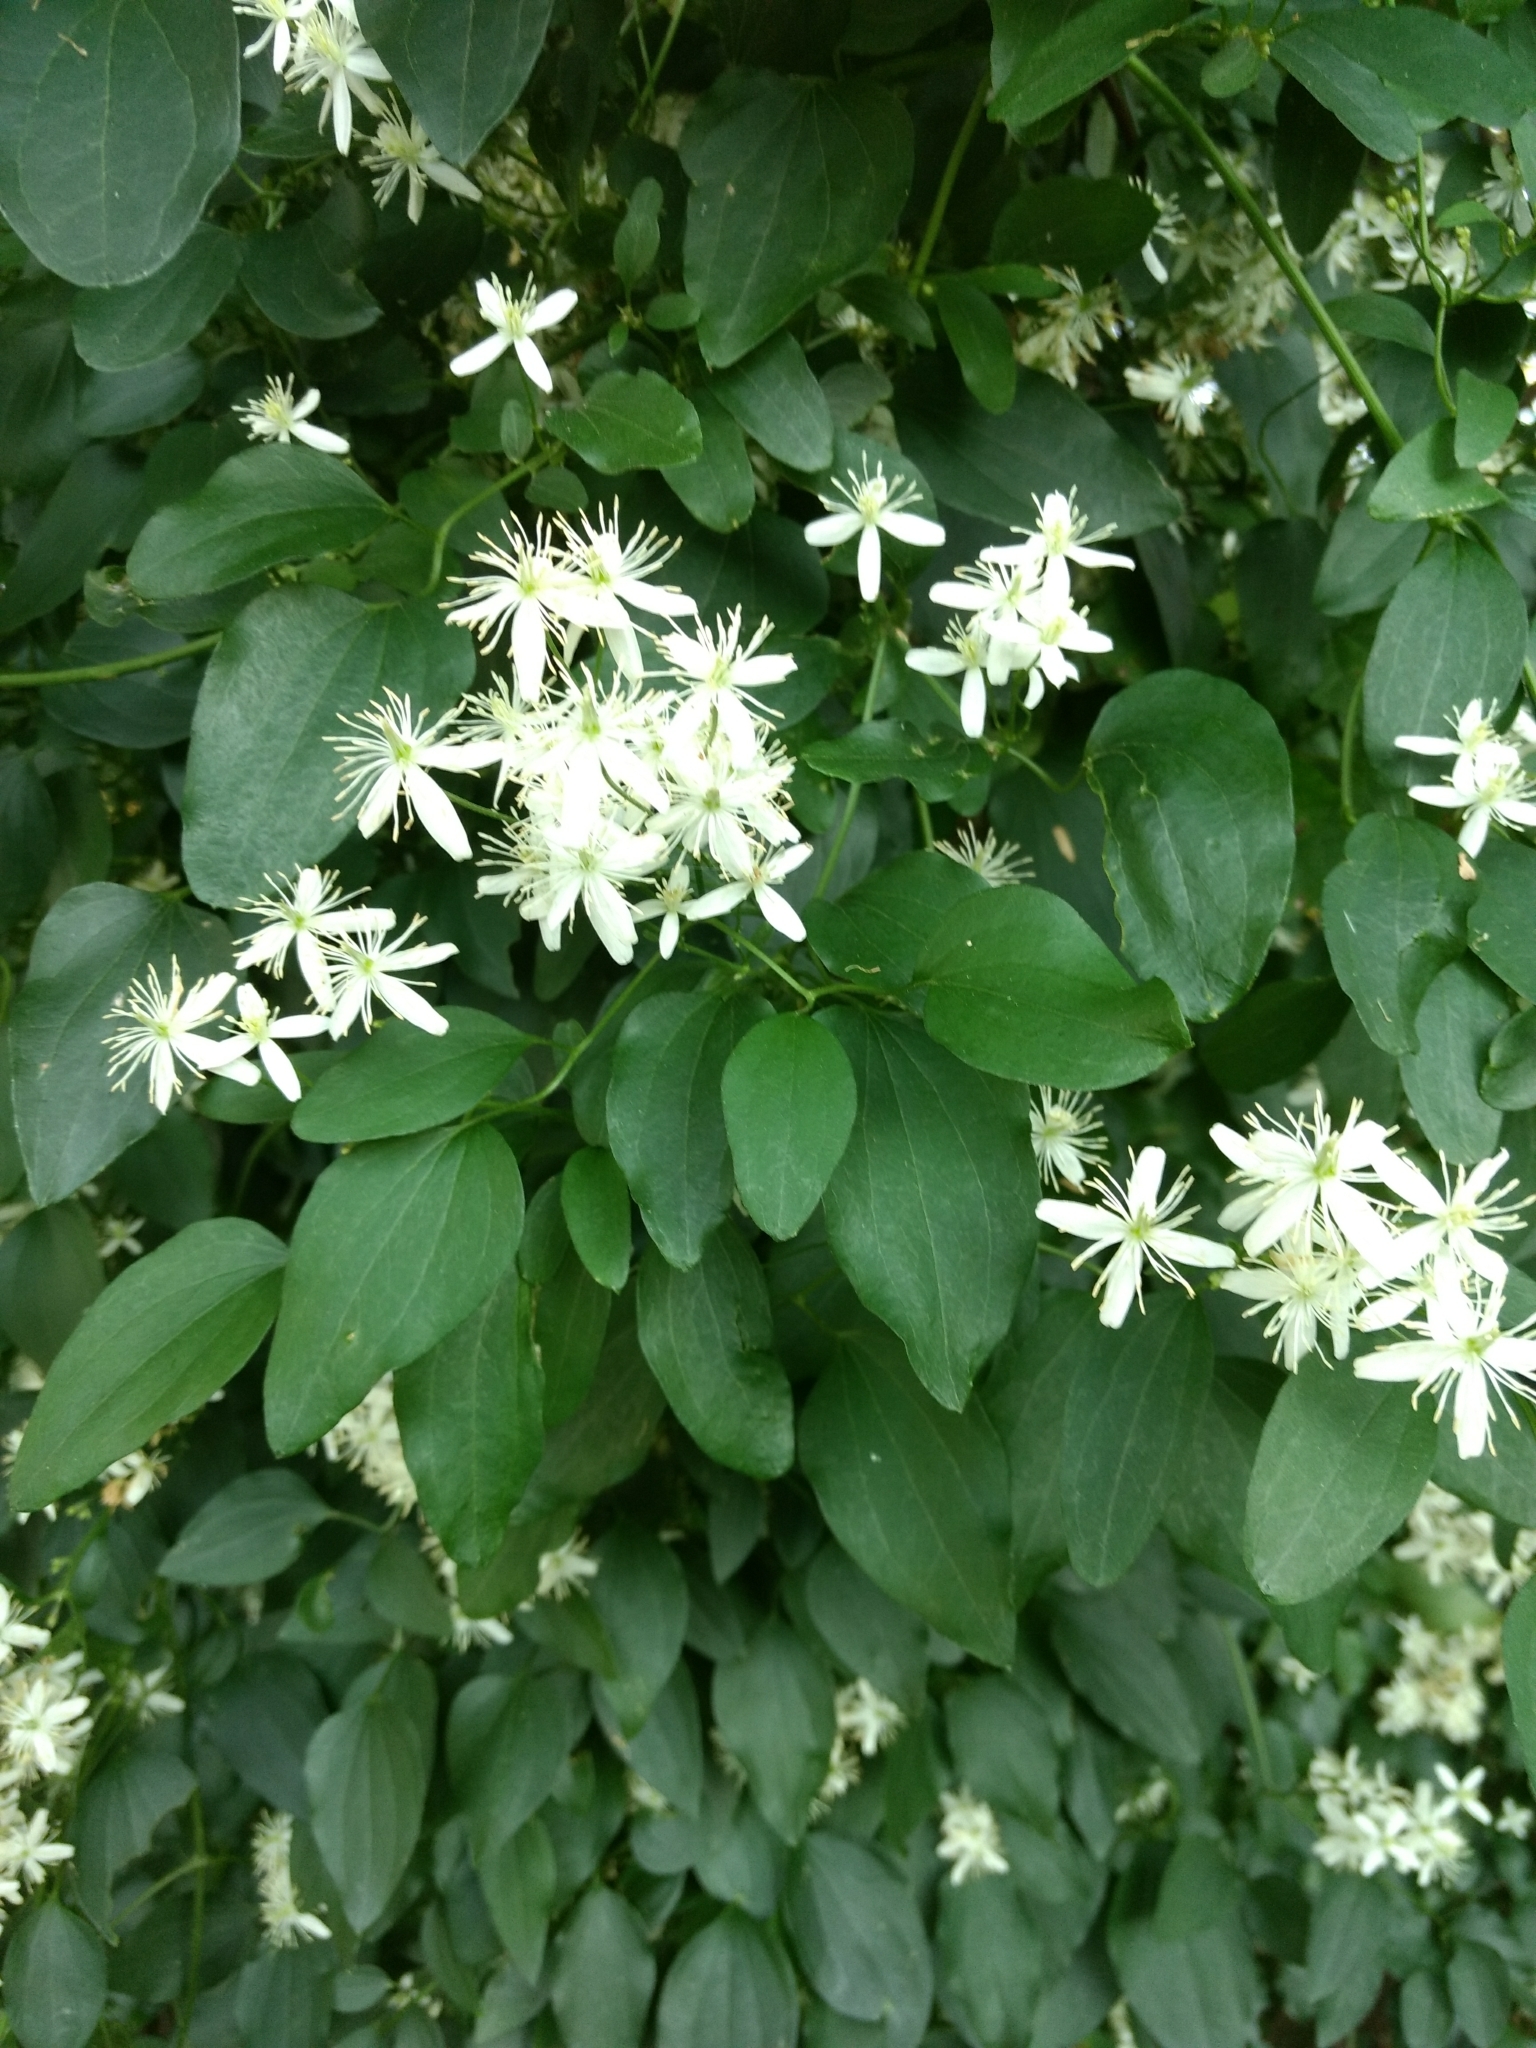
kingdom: Plantae
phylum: Tracheophyta
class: Magnoliopsida
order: Ranunculales
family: Ranunculaceae
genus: Clematis
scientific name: Clematis terniflora
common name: Sweet autumn clematis
